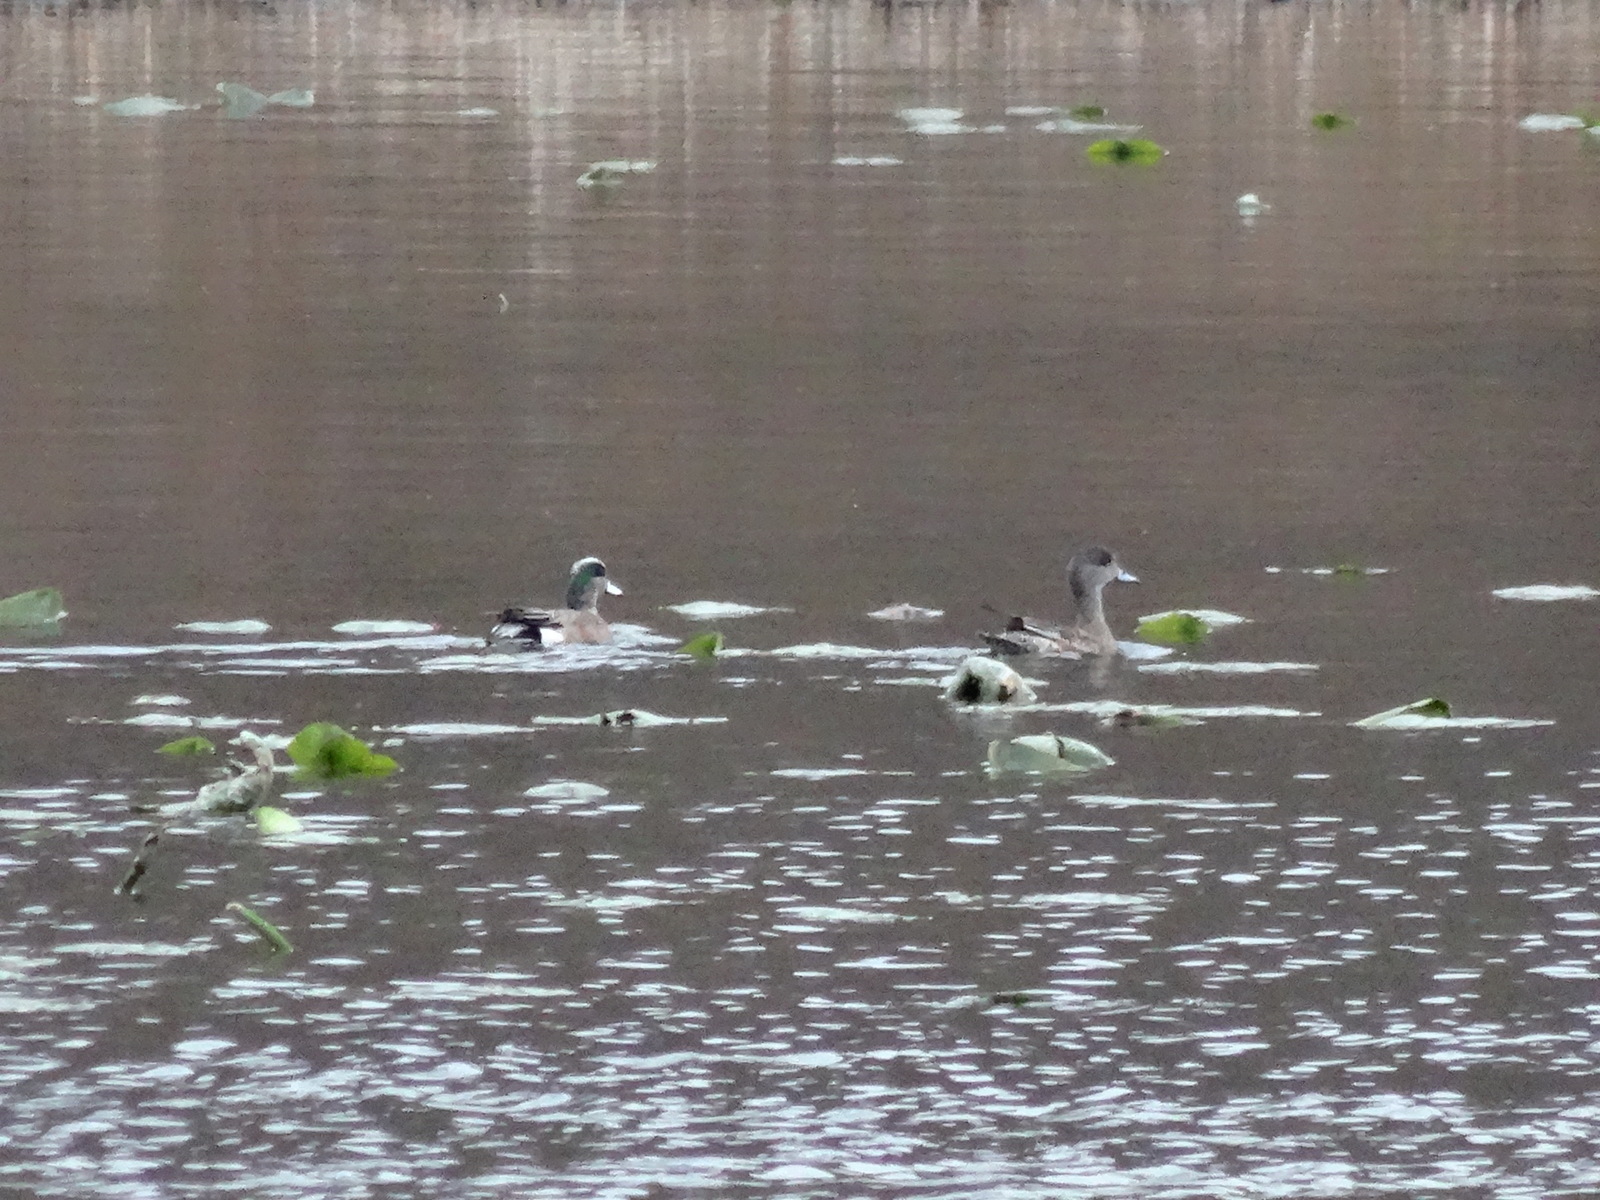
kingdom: Animalia
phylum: Chordata
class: Aves
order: Anseriformes
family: Anatidae
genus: Mareca
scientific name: Mareca americana
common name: American wigeon
